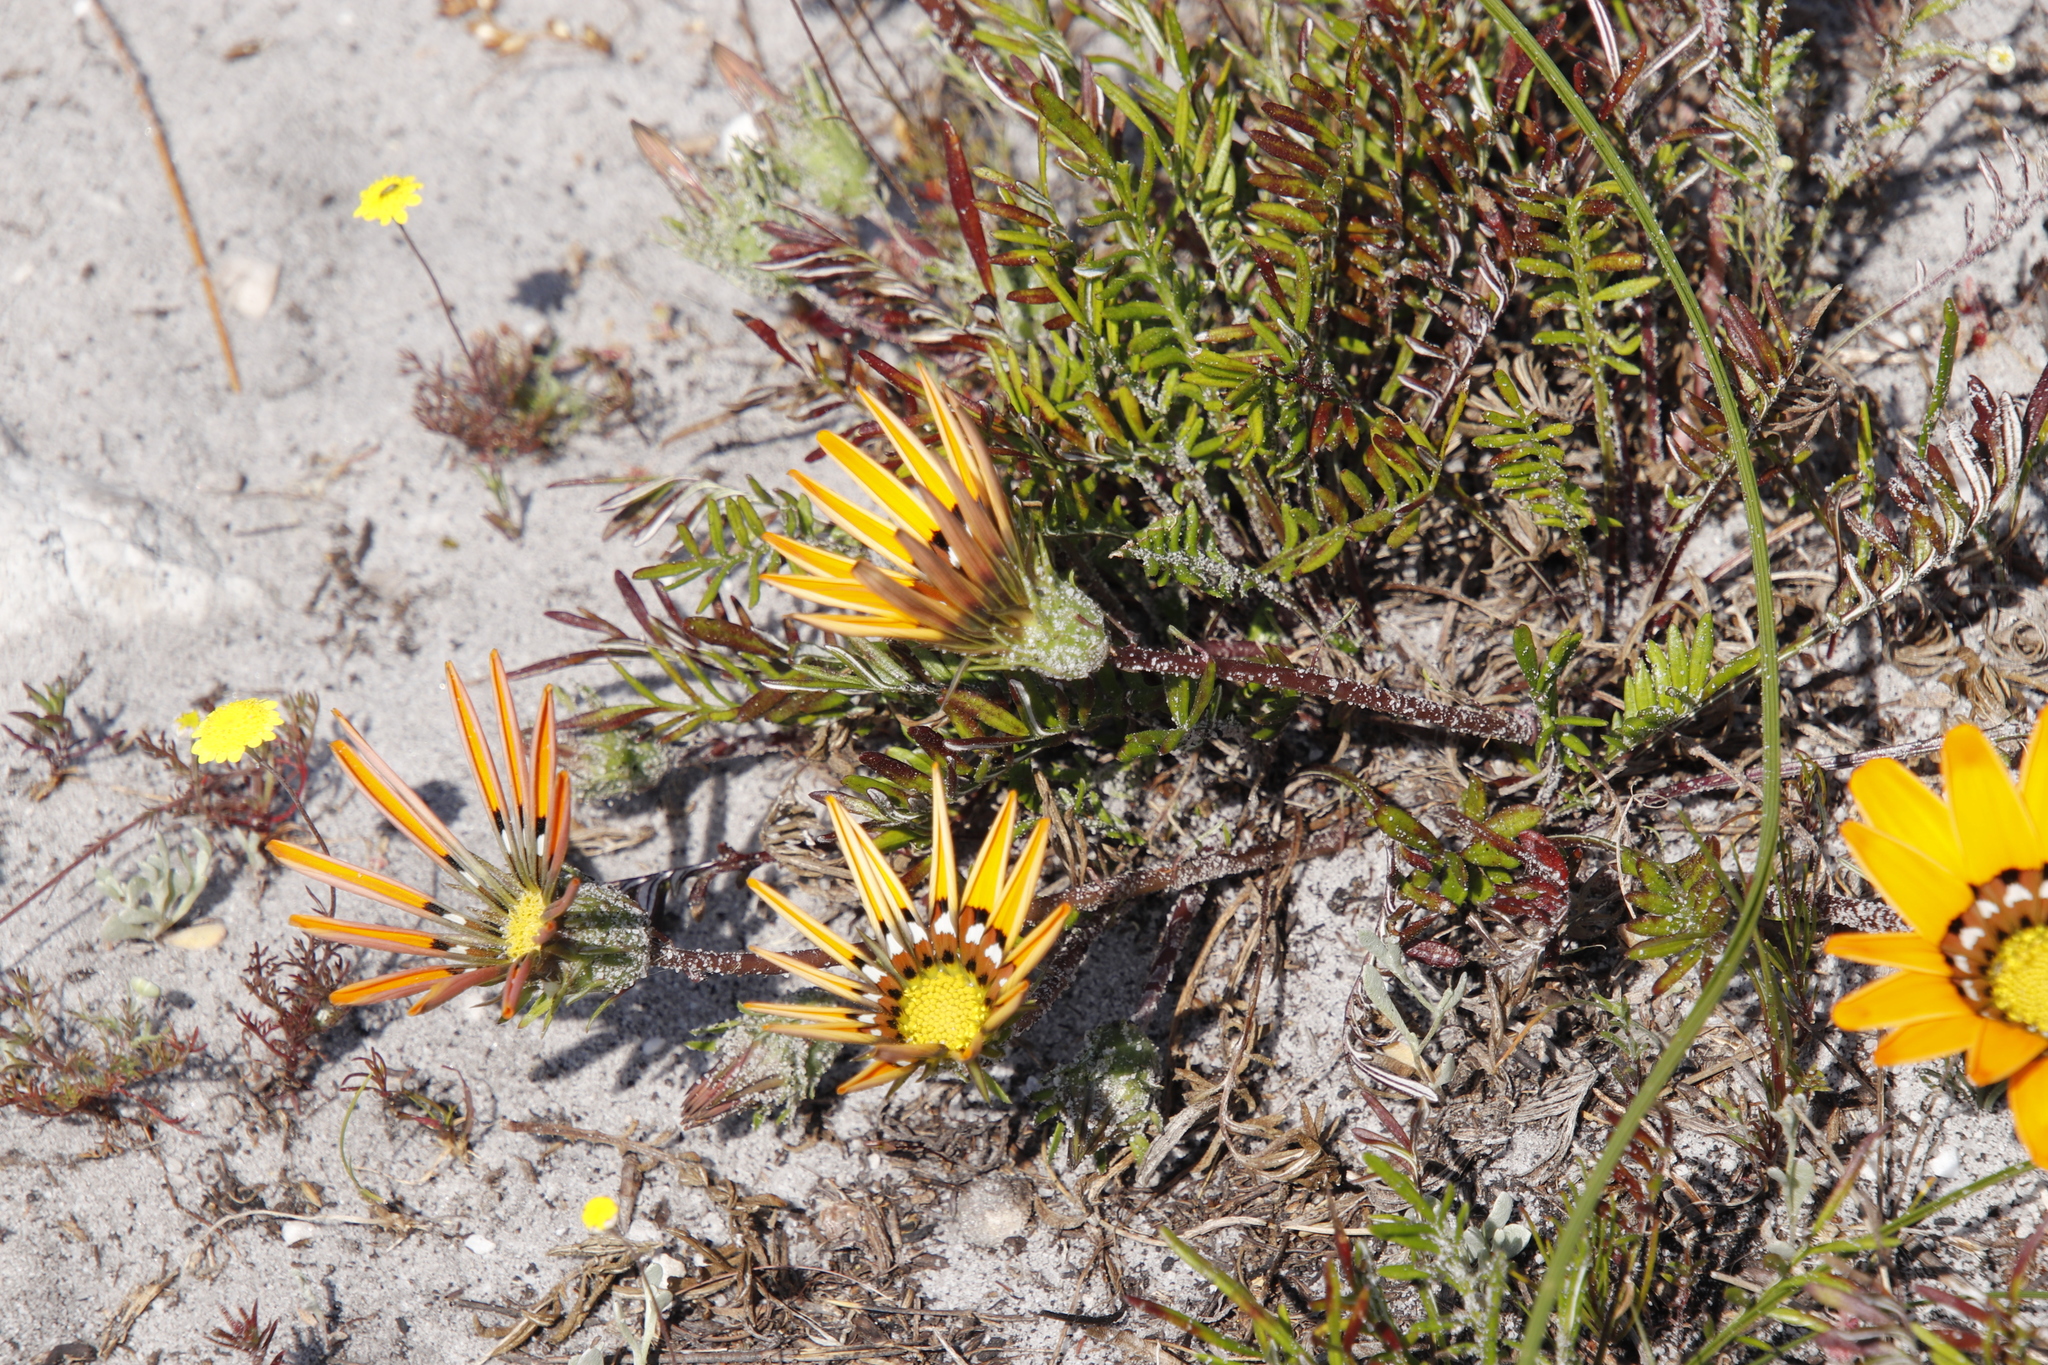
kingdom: Plantae
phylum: Tracheophyta
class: Magnoliopsida
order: Asterales
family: Asteraceae
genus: Gazania
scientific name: Gazania pectinata
